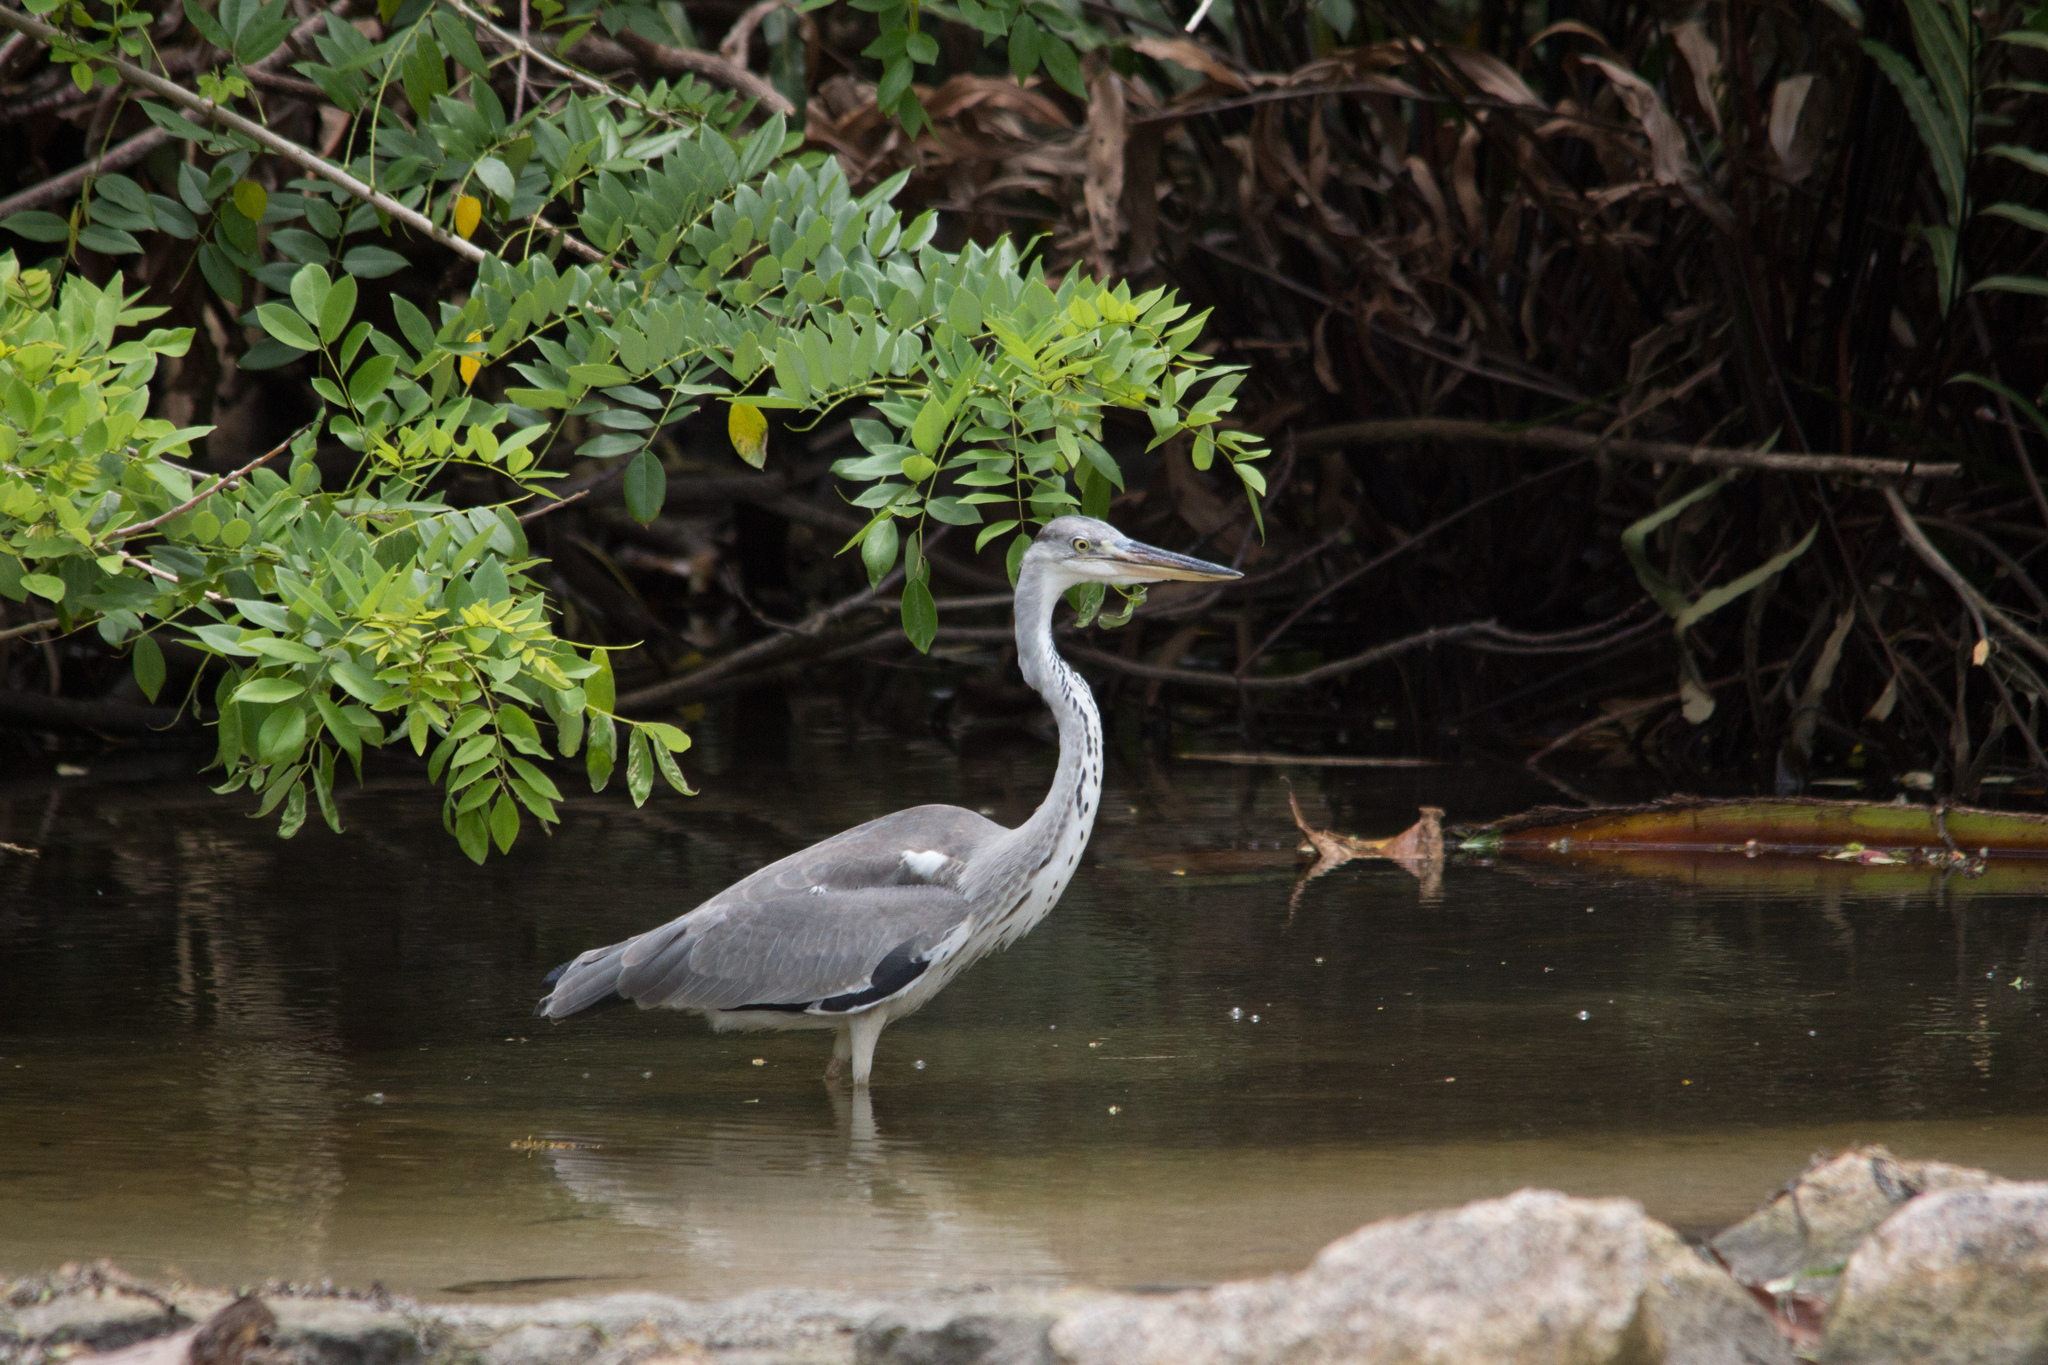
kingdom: Animalia
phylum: Chordata
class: Aves
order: Pelecaniformes
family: Ardeidae
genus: Ardea
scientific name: Ardea cinerea
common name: Grey heron
